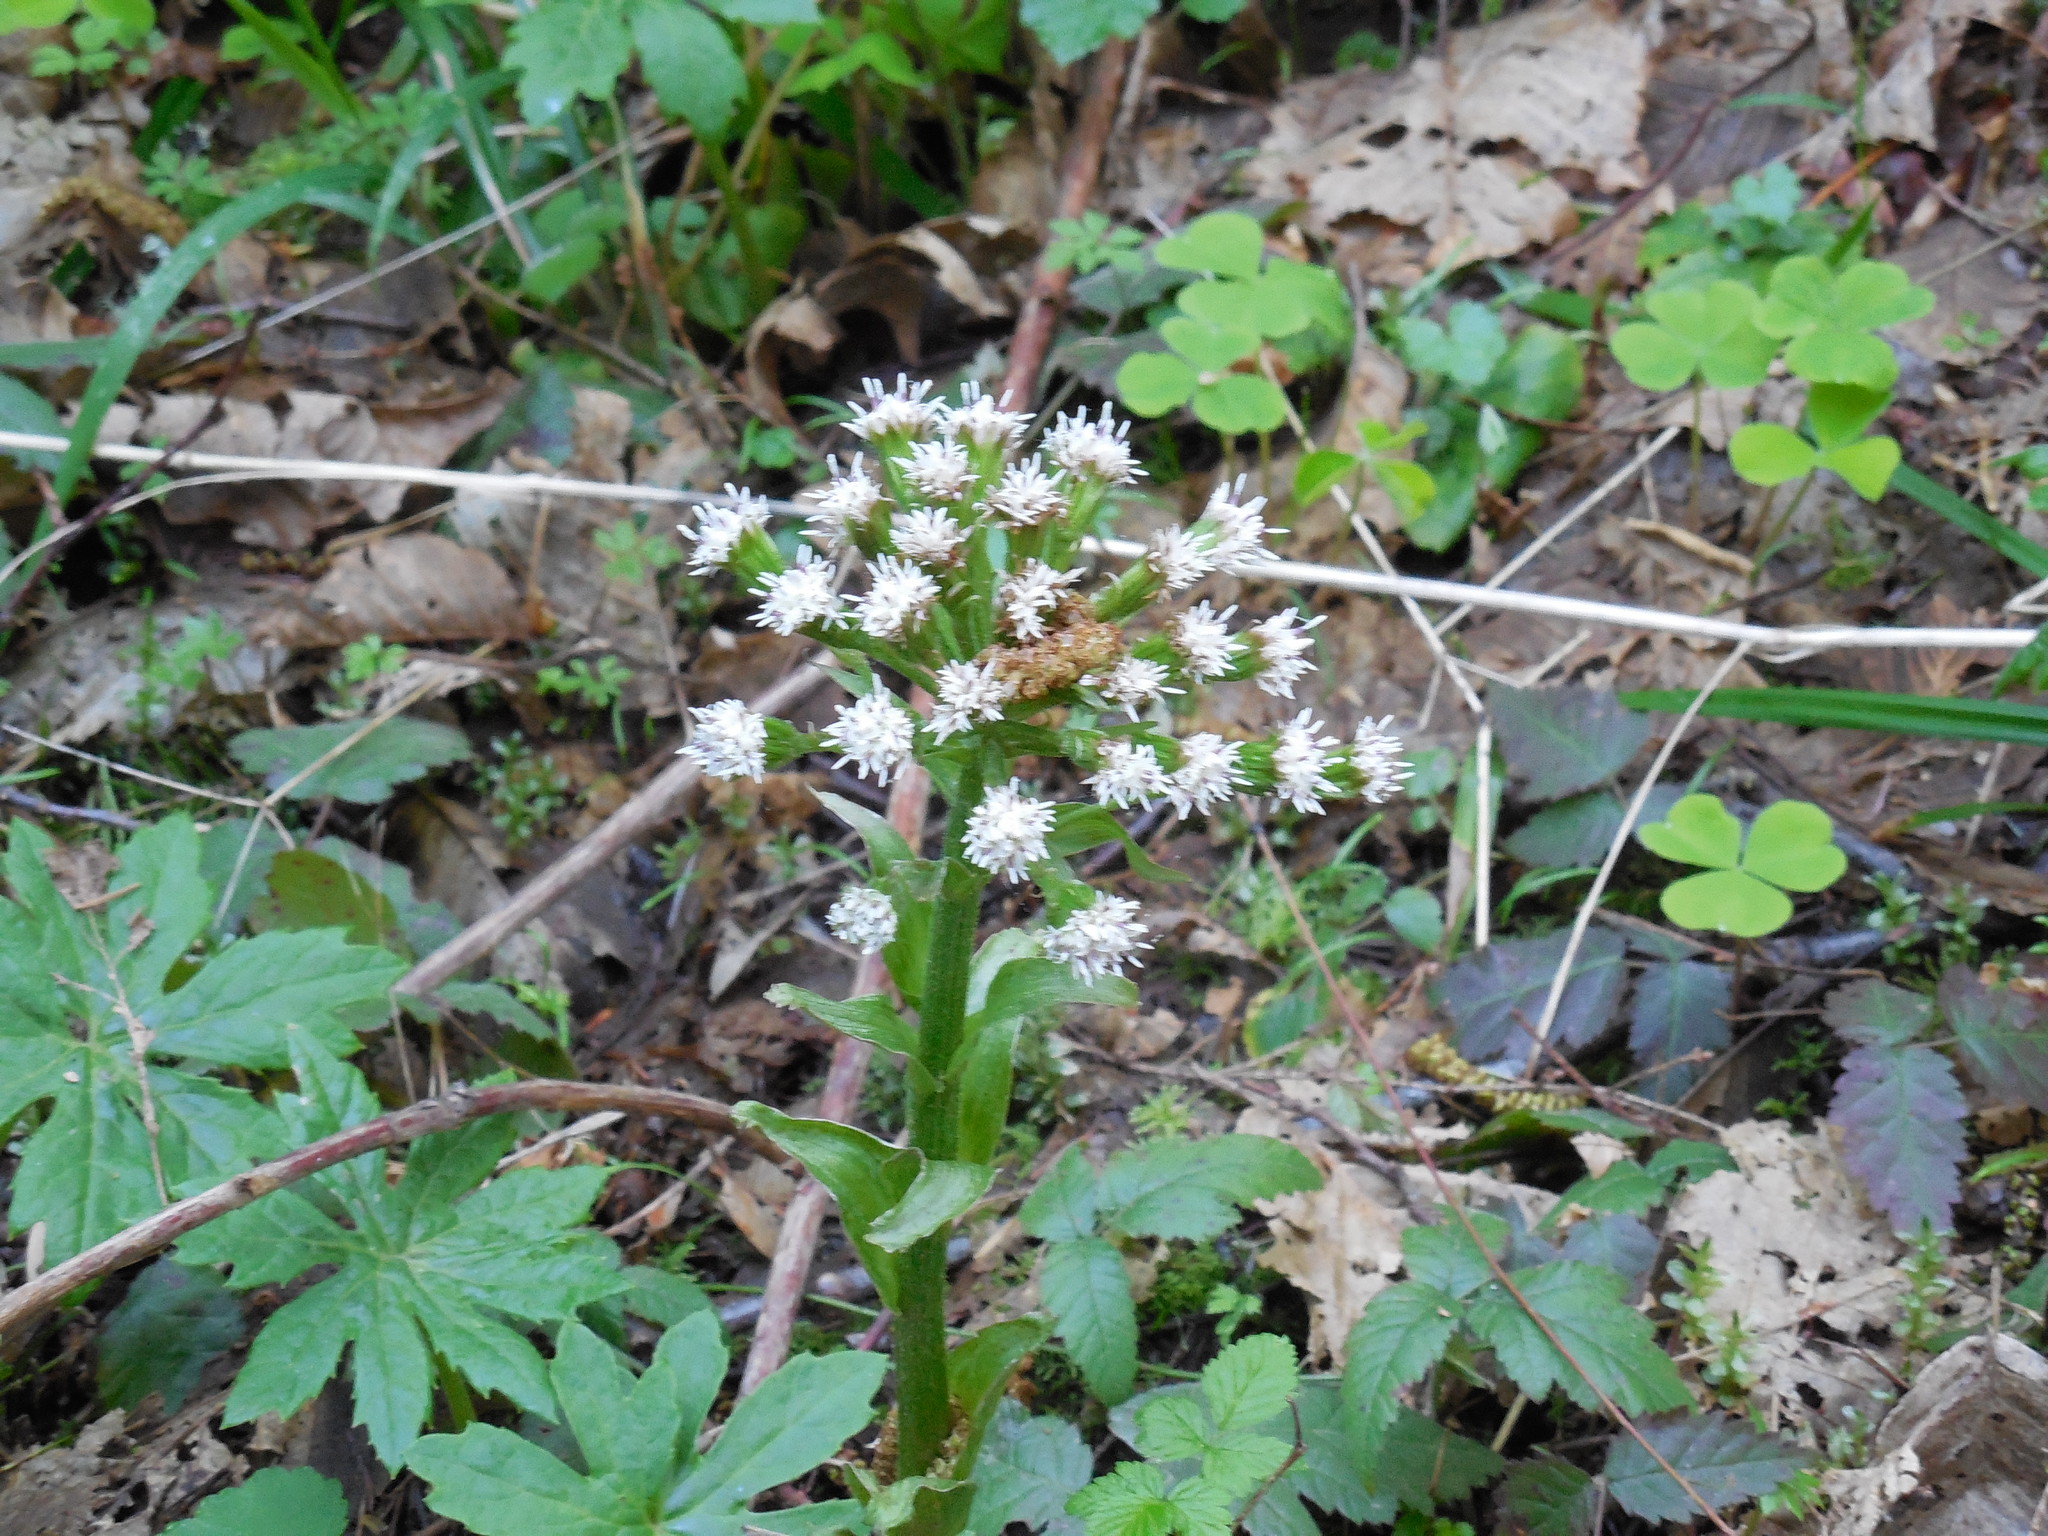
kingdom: Plantae
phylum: Tracheophyta
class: Magnoliopsida
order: Asterales
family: Asteraceae
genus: Petasites
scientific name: Petasites frigidus
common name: Arctic butterbur
